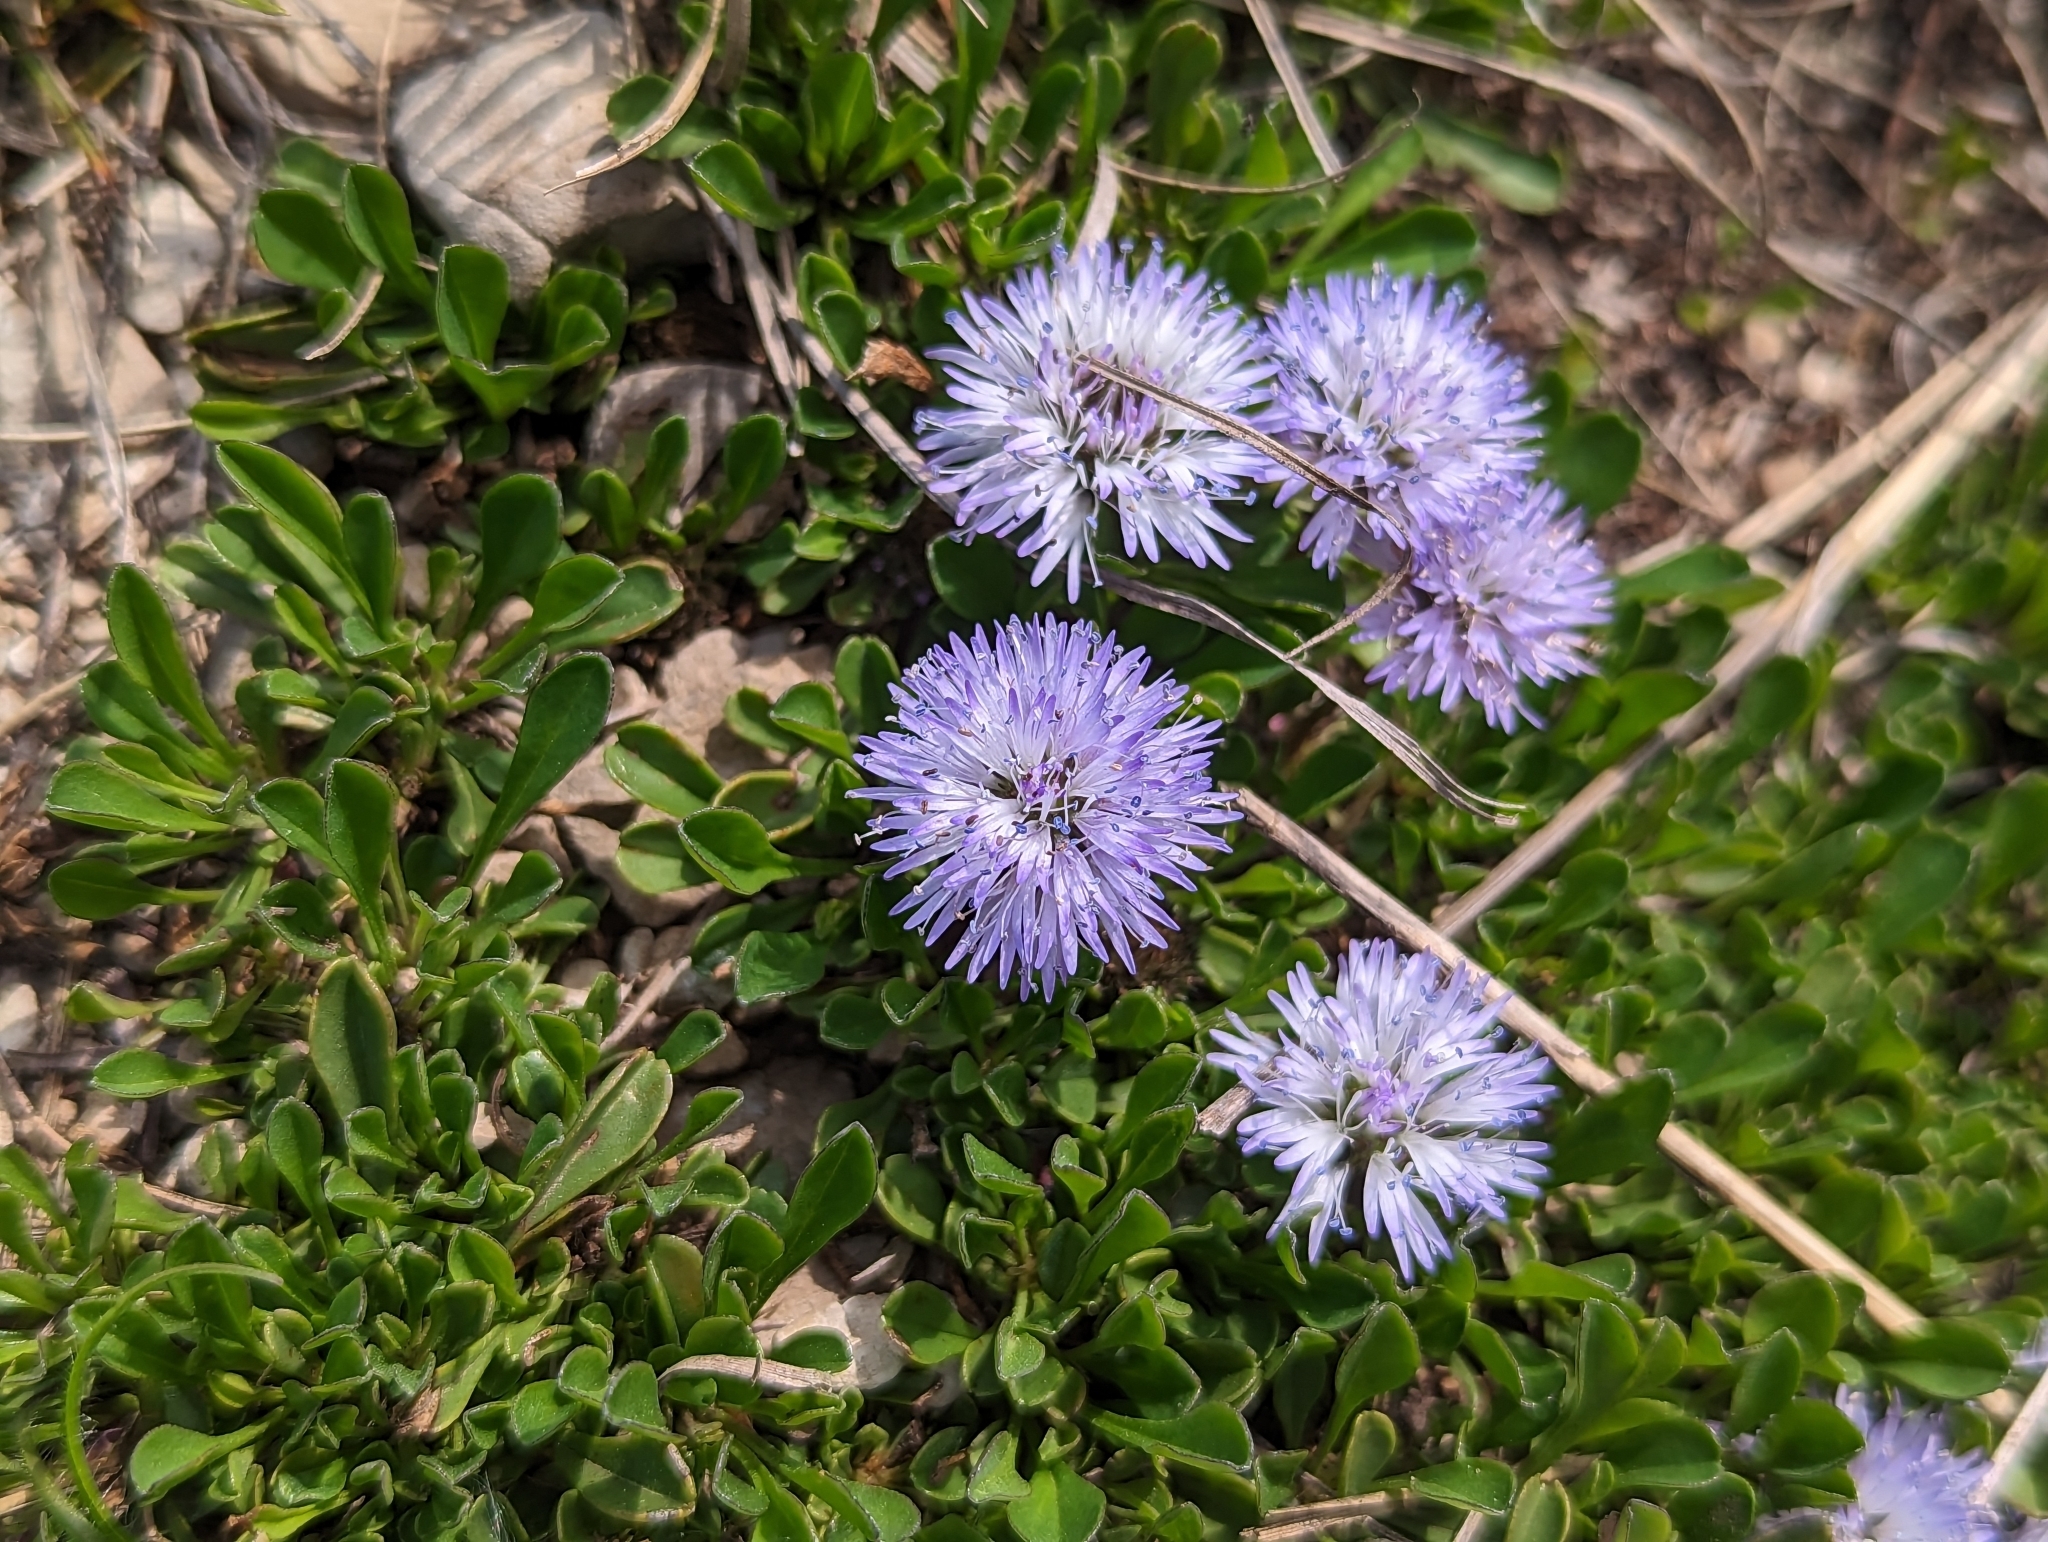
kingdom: Plantae
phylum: Tracheophyta
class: Magnoliopsida
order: Lamiales
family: Plantaginaceae
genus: Globularia
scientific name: Globularia cordifolia
